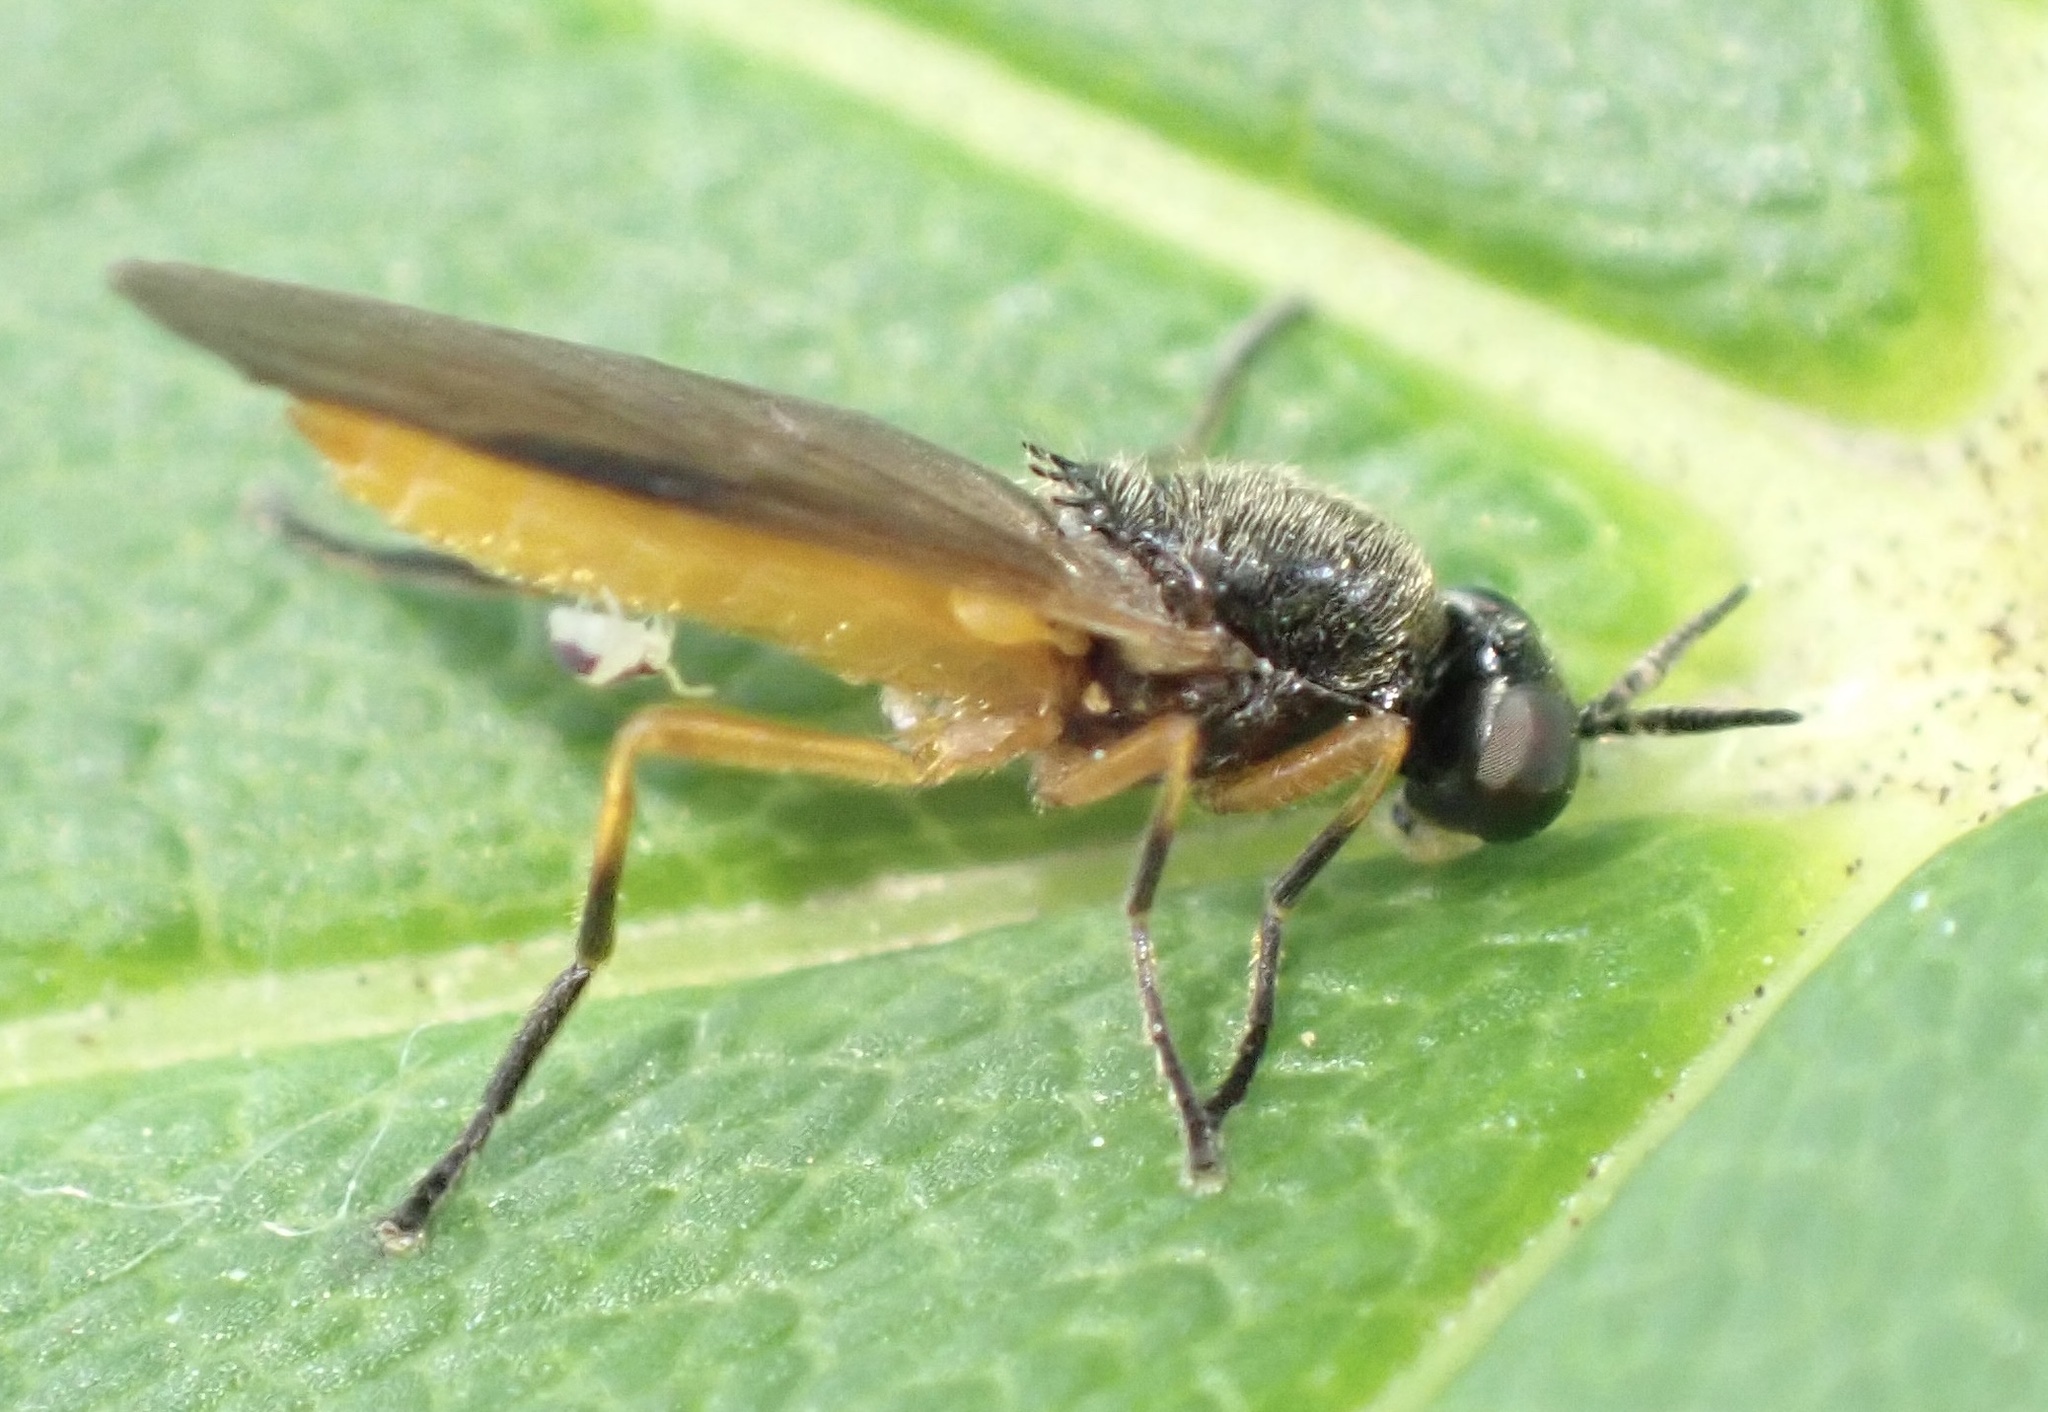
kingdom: Animalia
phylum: Arthropoda
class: Insecta
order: Diptera
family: Stratiomyidae
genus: Beris
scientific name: Beris vallata
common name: Common orange legionnaire
